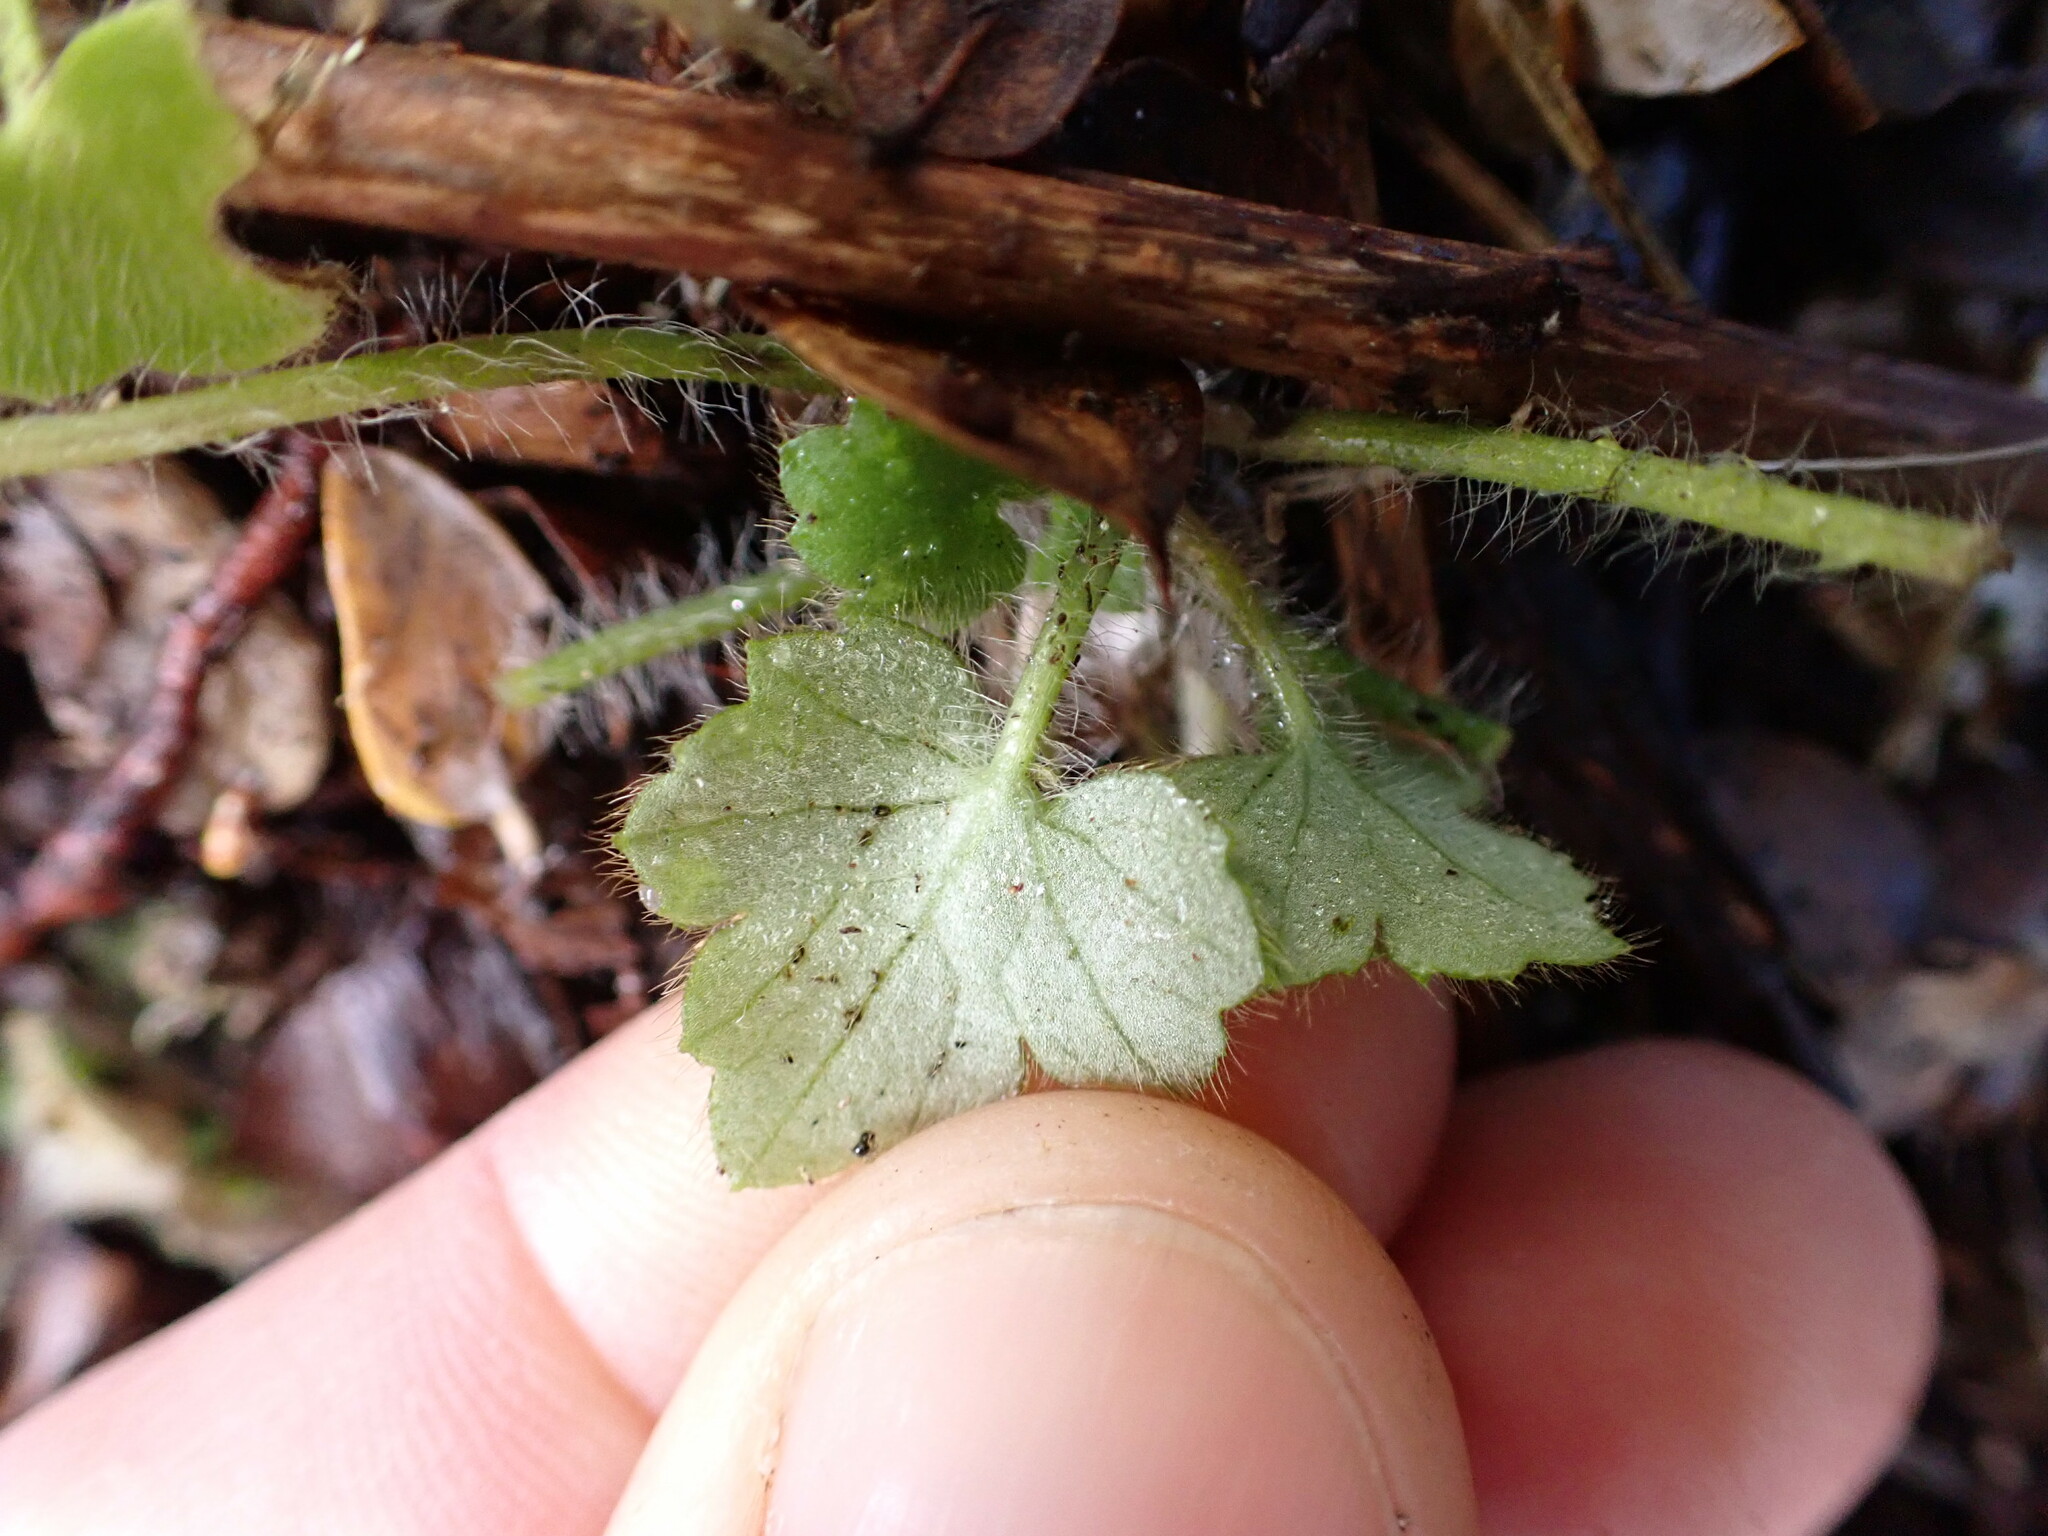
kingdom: Plantae
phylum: Tracheophyta
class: Magnoliopsida
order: Ranunculales
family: Ranunculaceae
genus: Ranunculus
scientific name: Ranunculus reflexus
